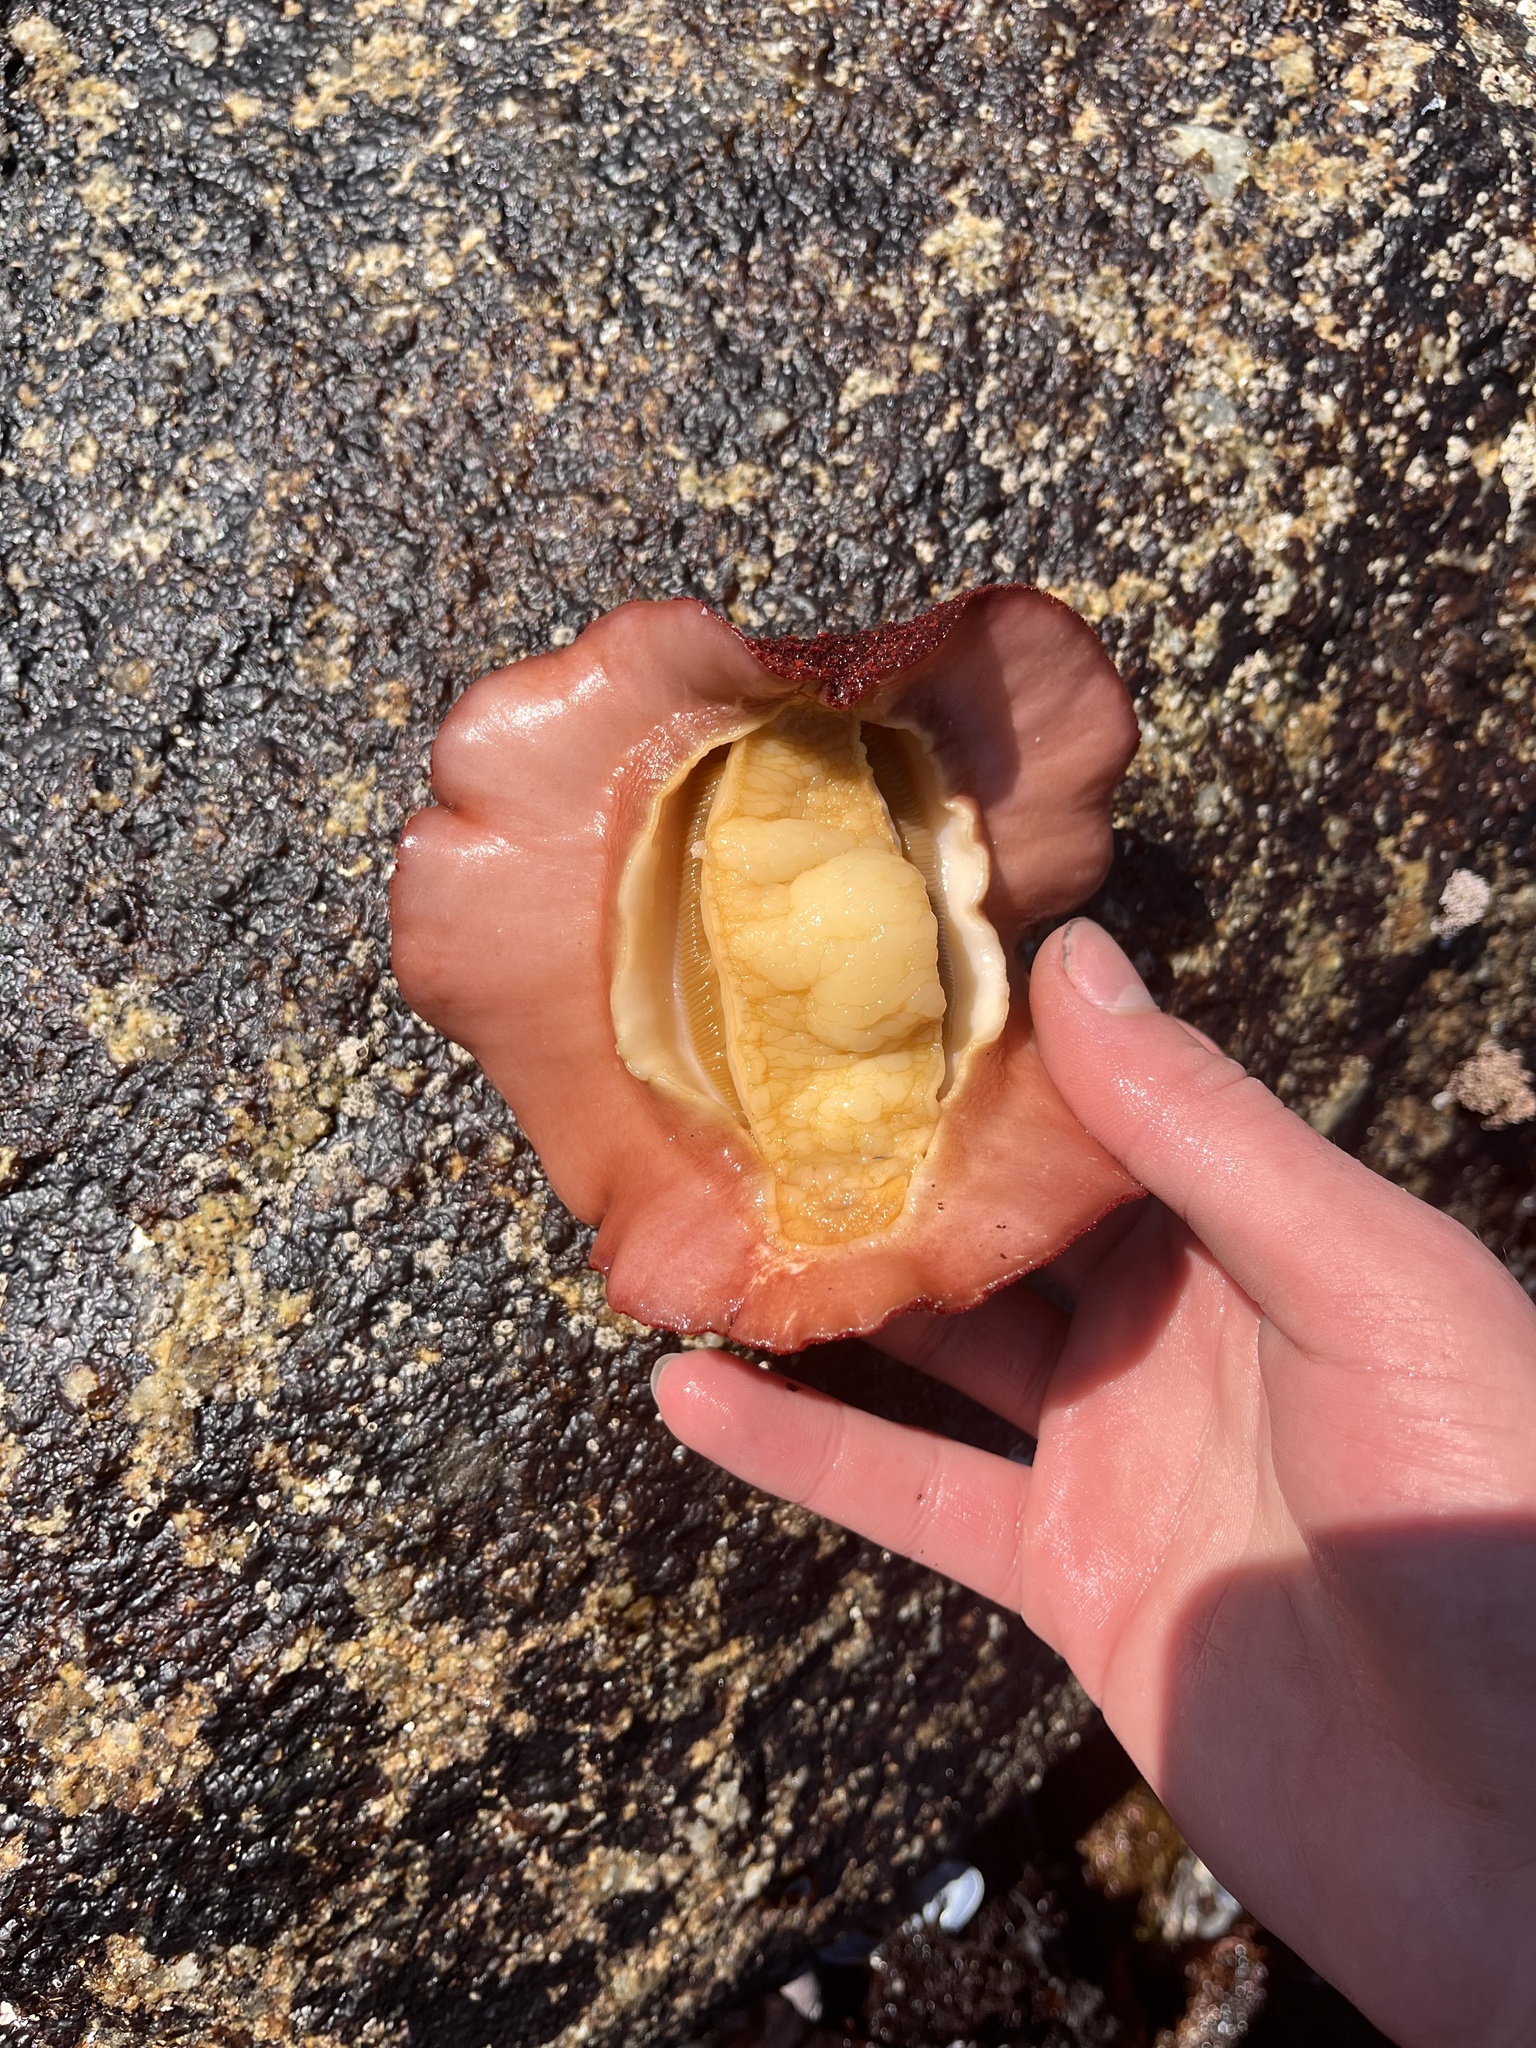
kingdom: Animalia
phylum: Mollusca
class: Polyplacophora
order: Chitonida
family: Acanthochitonidae
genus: Cryptochiton
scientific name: Cryptochiton stelleri
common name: Giant pacific chiton
